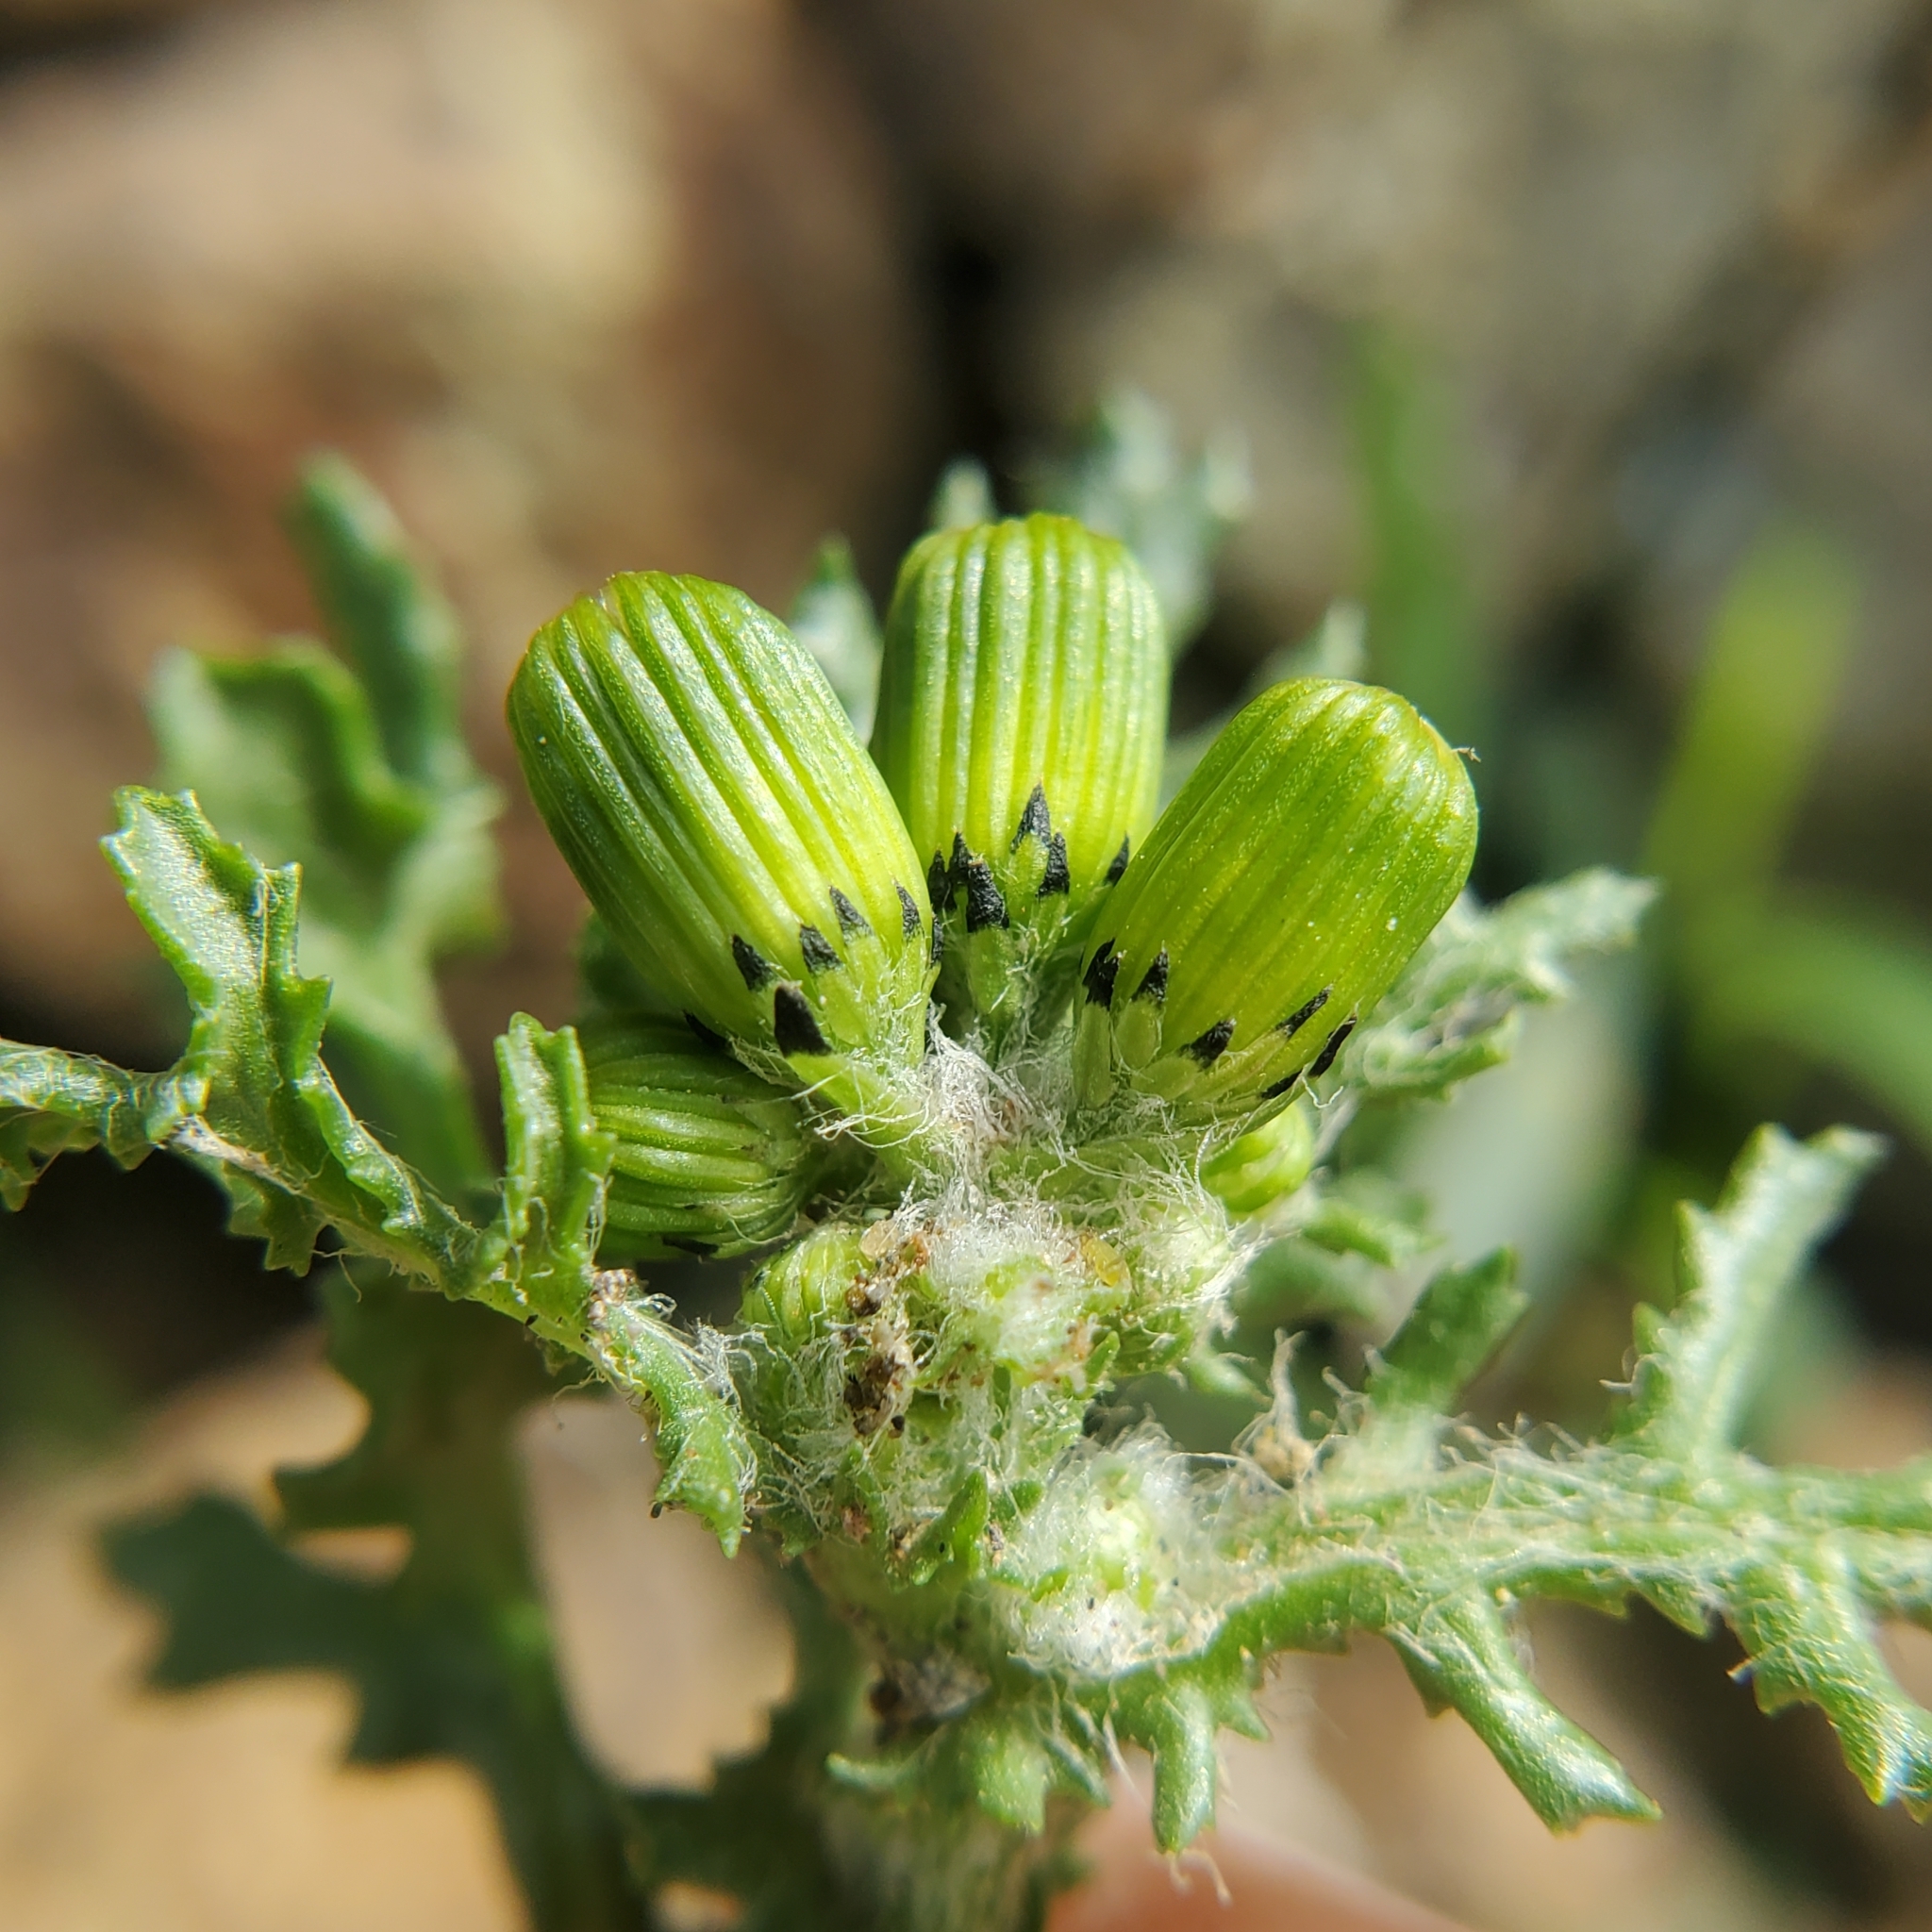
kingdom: Plantae
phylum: Tracheophyta
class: Magnoliopsida
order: Asterales
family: Asteraceae
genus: Senecio
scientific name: Senecio vulgaris
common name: Old-man-in-the-spring
